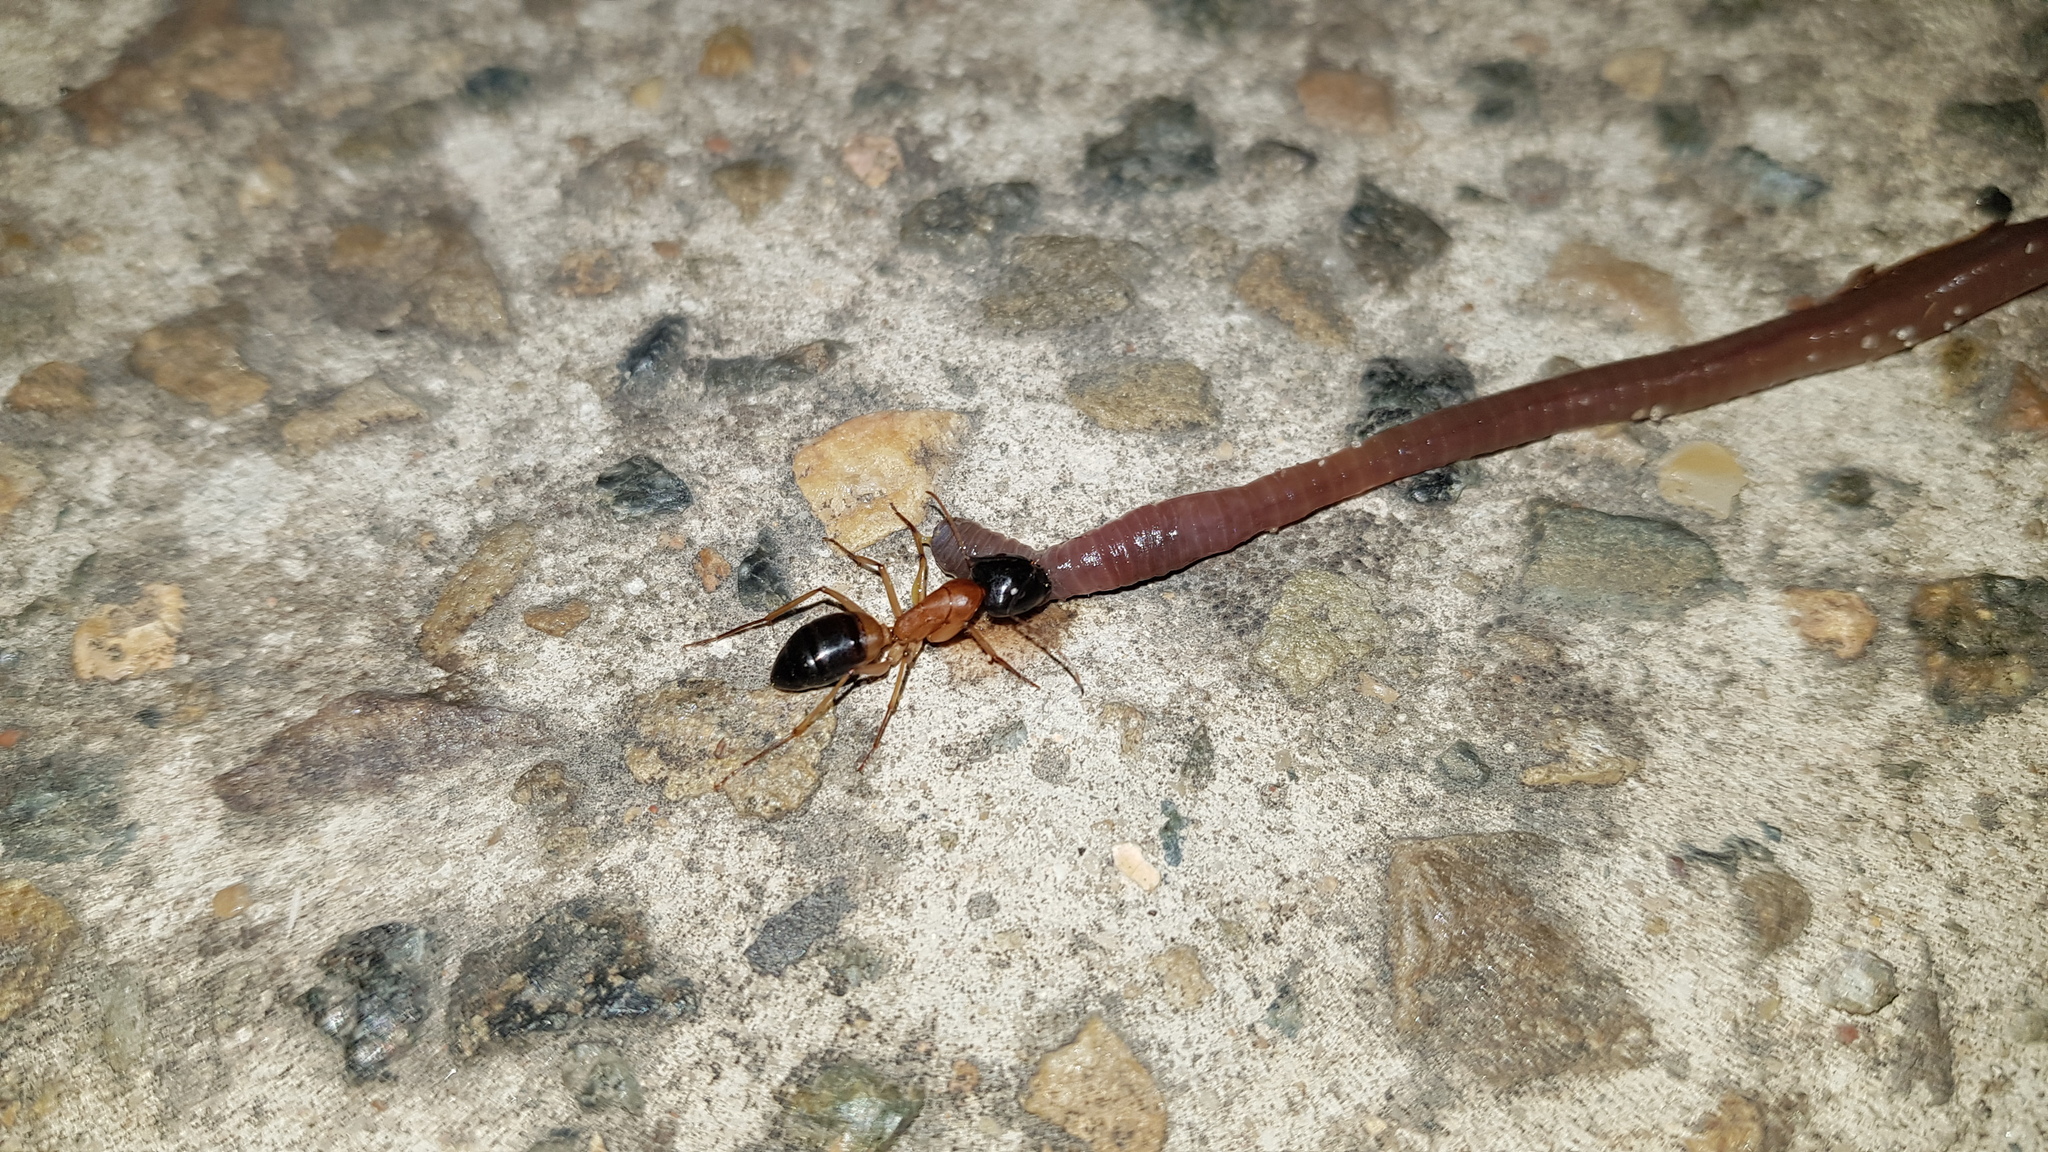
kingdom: Animalia
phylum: Arthropoda
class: Insecta
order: Hymenoptera
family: Formicidae
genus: Camponotus
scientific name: Camponotus consobrinus
